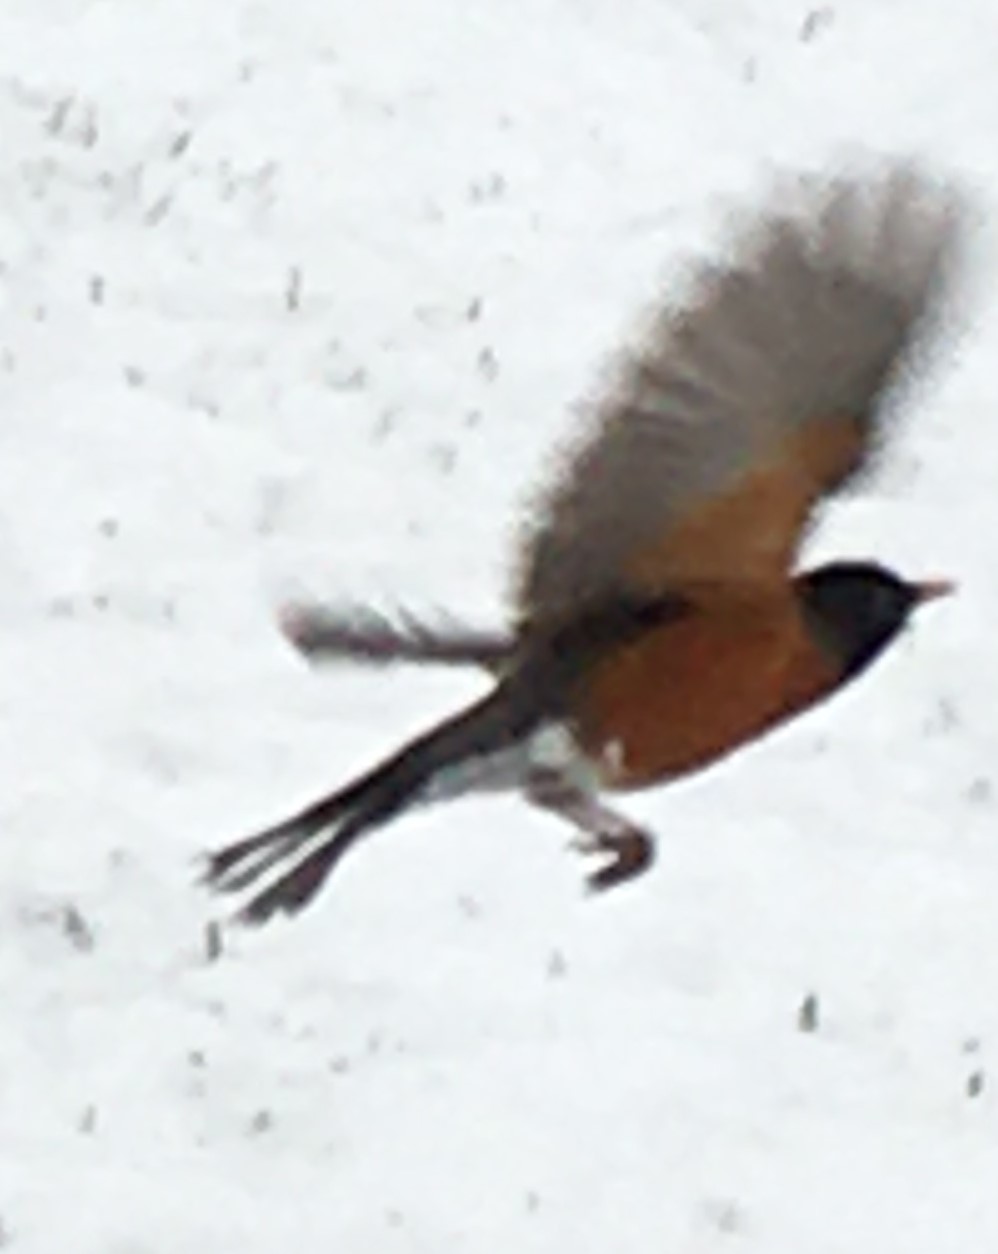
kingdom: Animalia
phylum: Chordata
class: Aves
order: Passeriformes
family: Turdidae
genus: Turdus
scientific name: Turdus migratorius
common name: American robin
